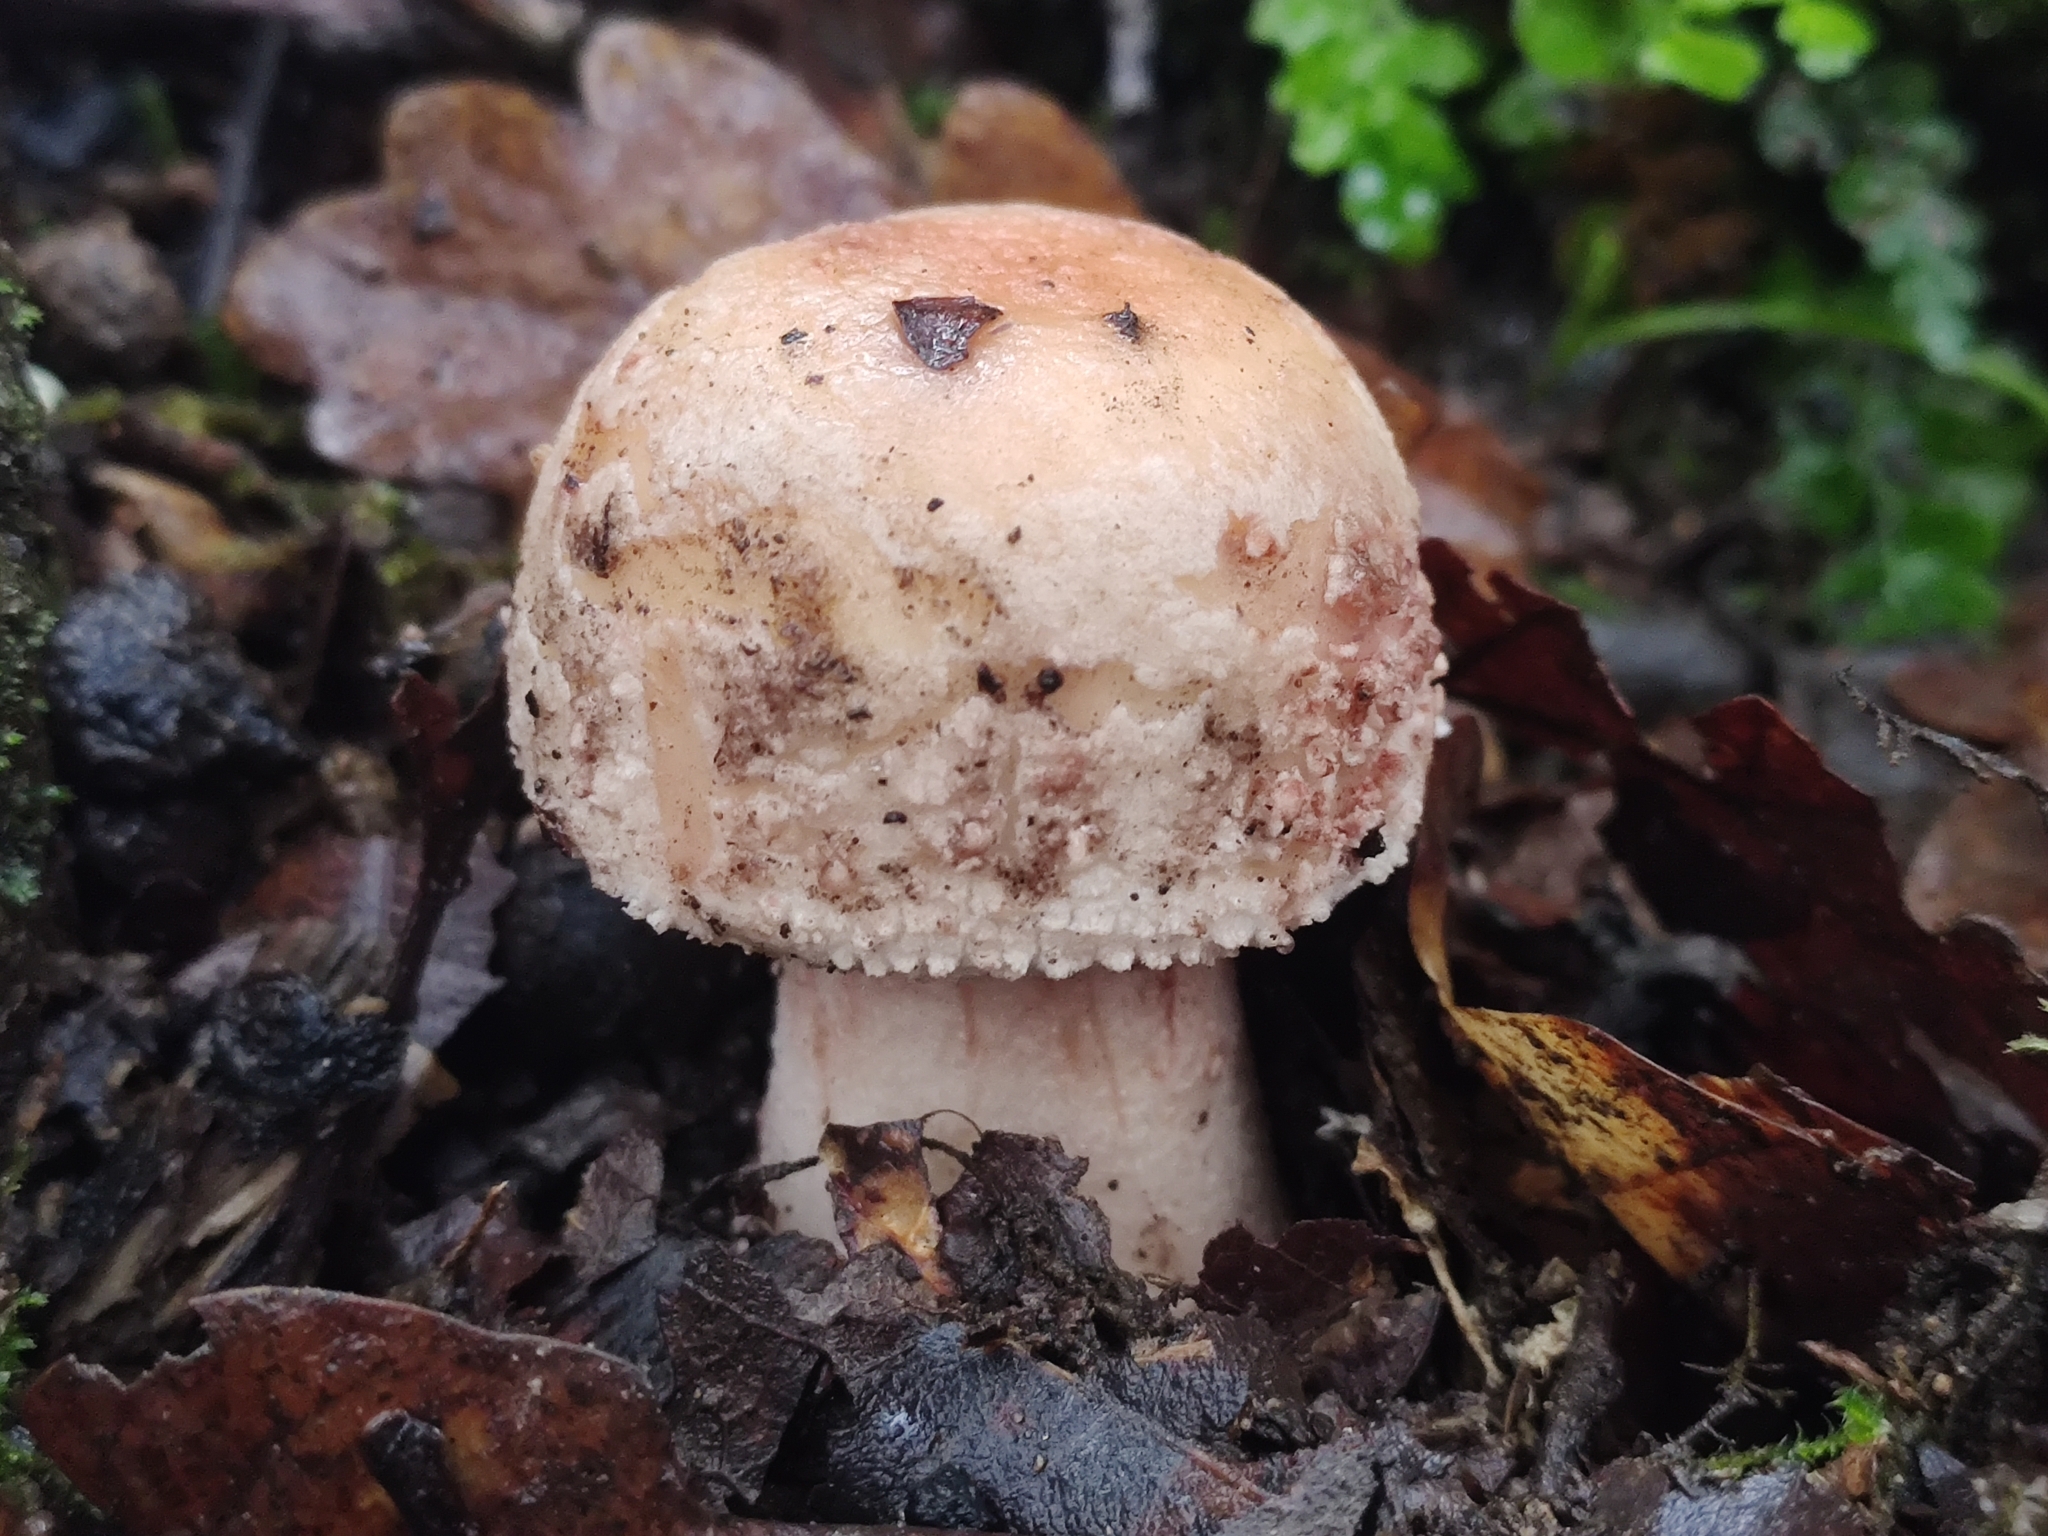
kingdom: Fungi
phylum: Basidiomycota
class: Agaricomycetes
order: Agaricales
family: Amanitaceae
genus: Amanita
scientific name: Amanita rubescens
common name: Blusher
